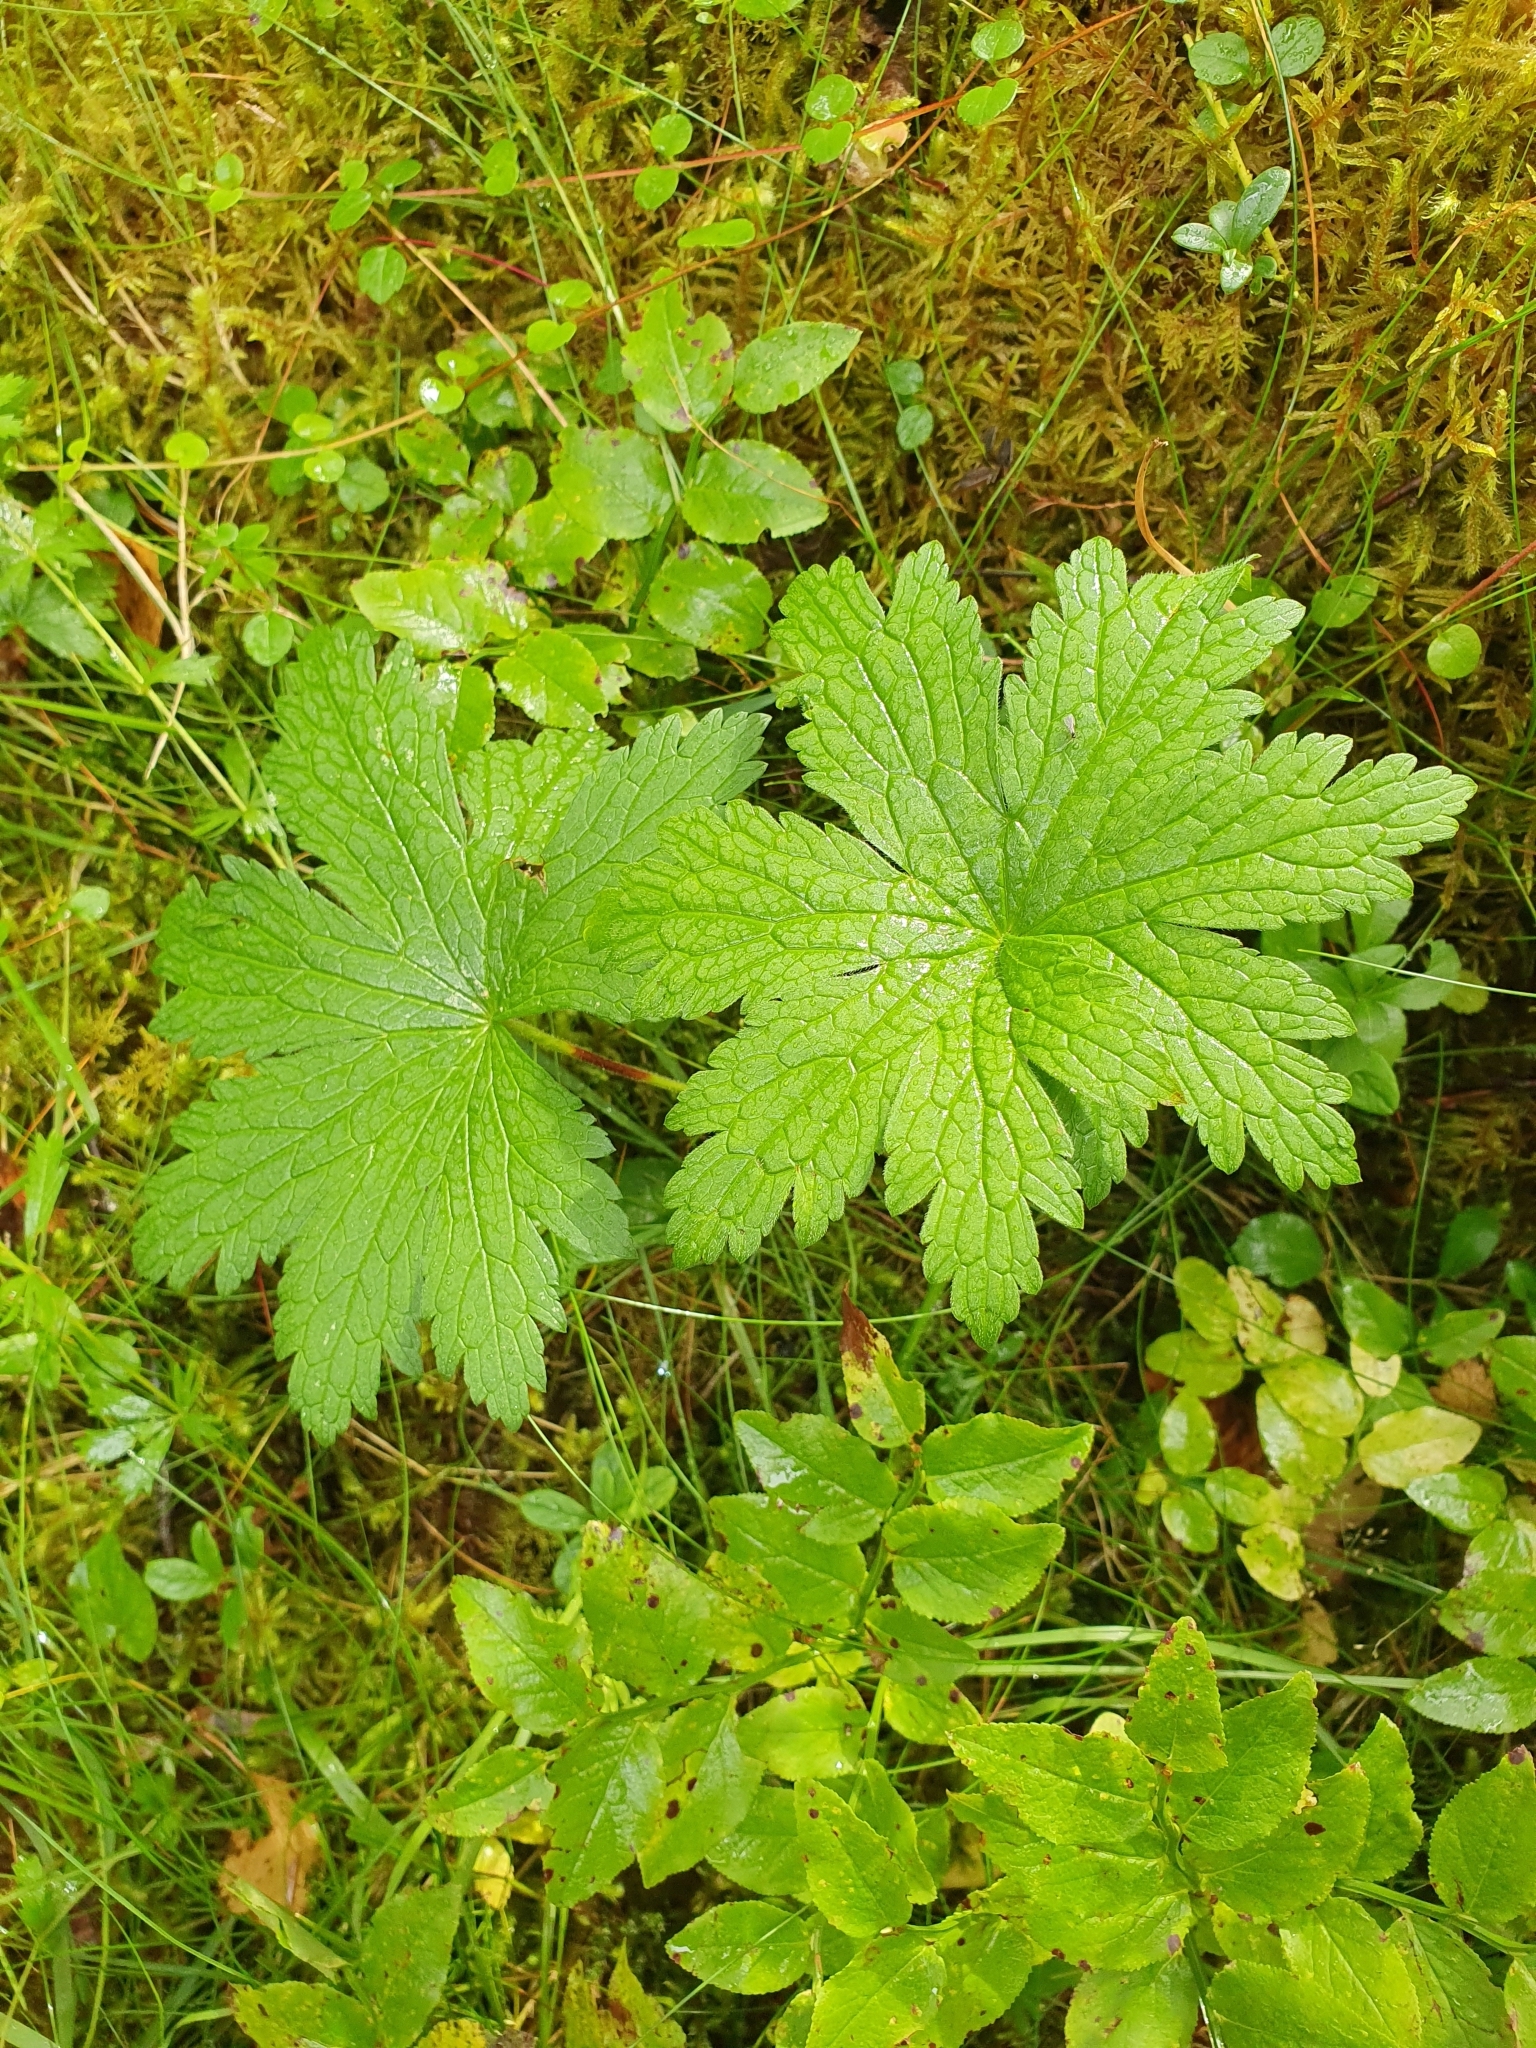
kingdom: Plantae
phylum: Tracheophyta
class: Magnoliopsida
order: Geraniales
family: Geraniaceae
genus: Geranium
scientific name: Geranium sylvaticum
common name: Wood crane's-bill
